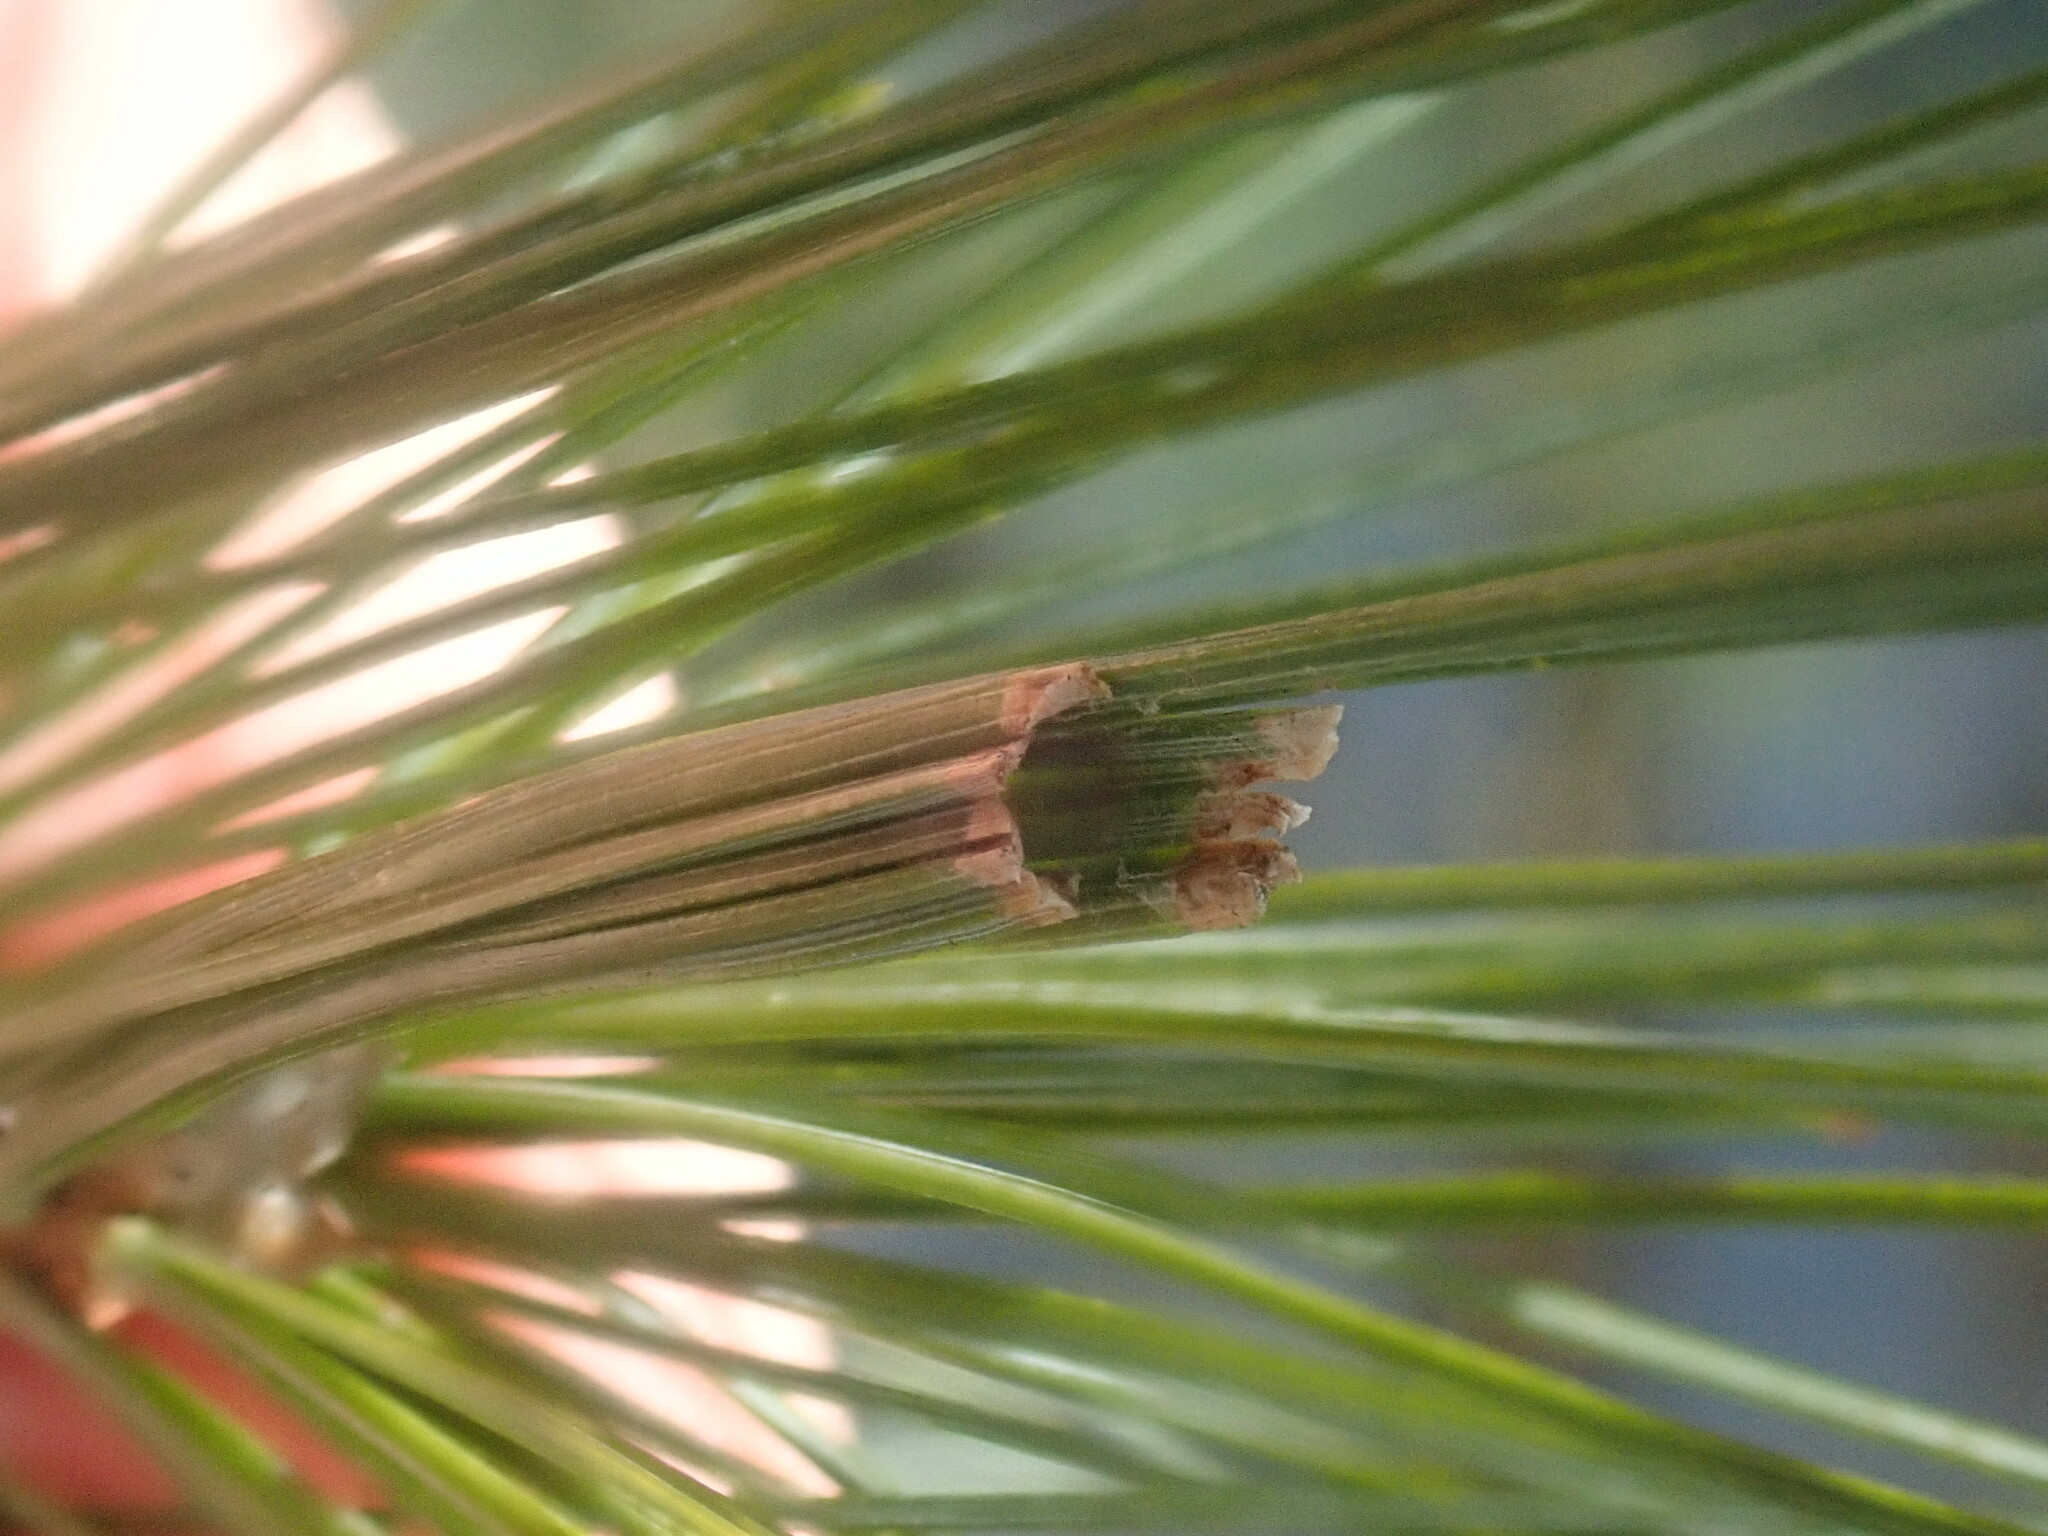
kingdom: Animalia
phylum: Arthropoda
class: Insecta
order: Lepidoptera
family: Tortricidae
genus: Argyrotaenia
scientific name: Argyrotaenia pinatubana
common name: Pine tube moth
